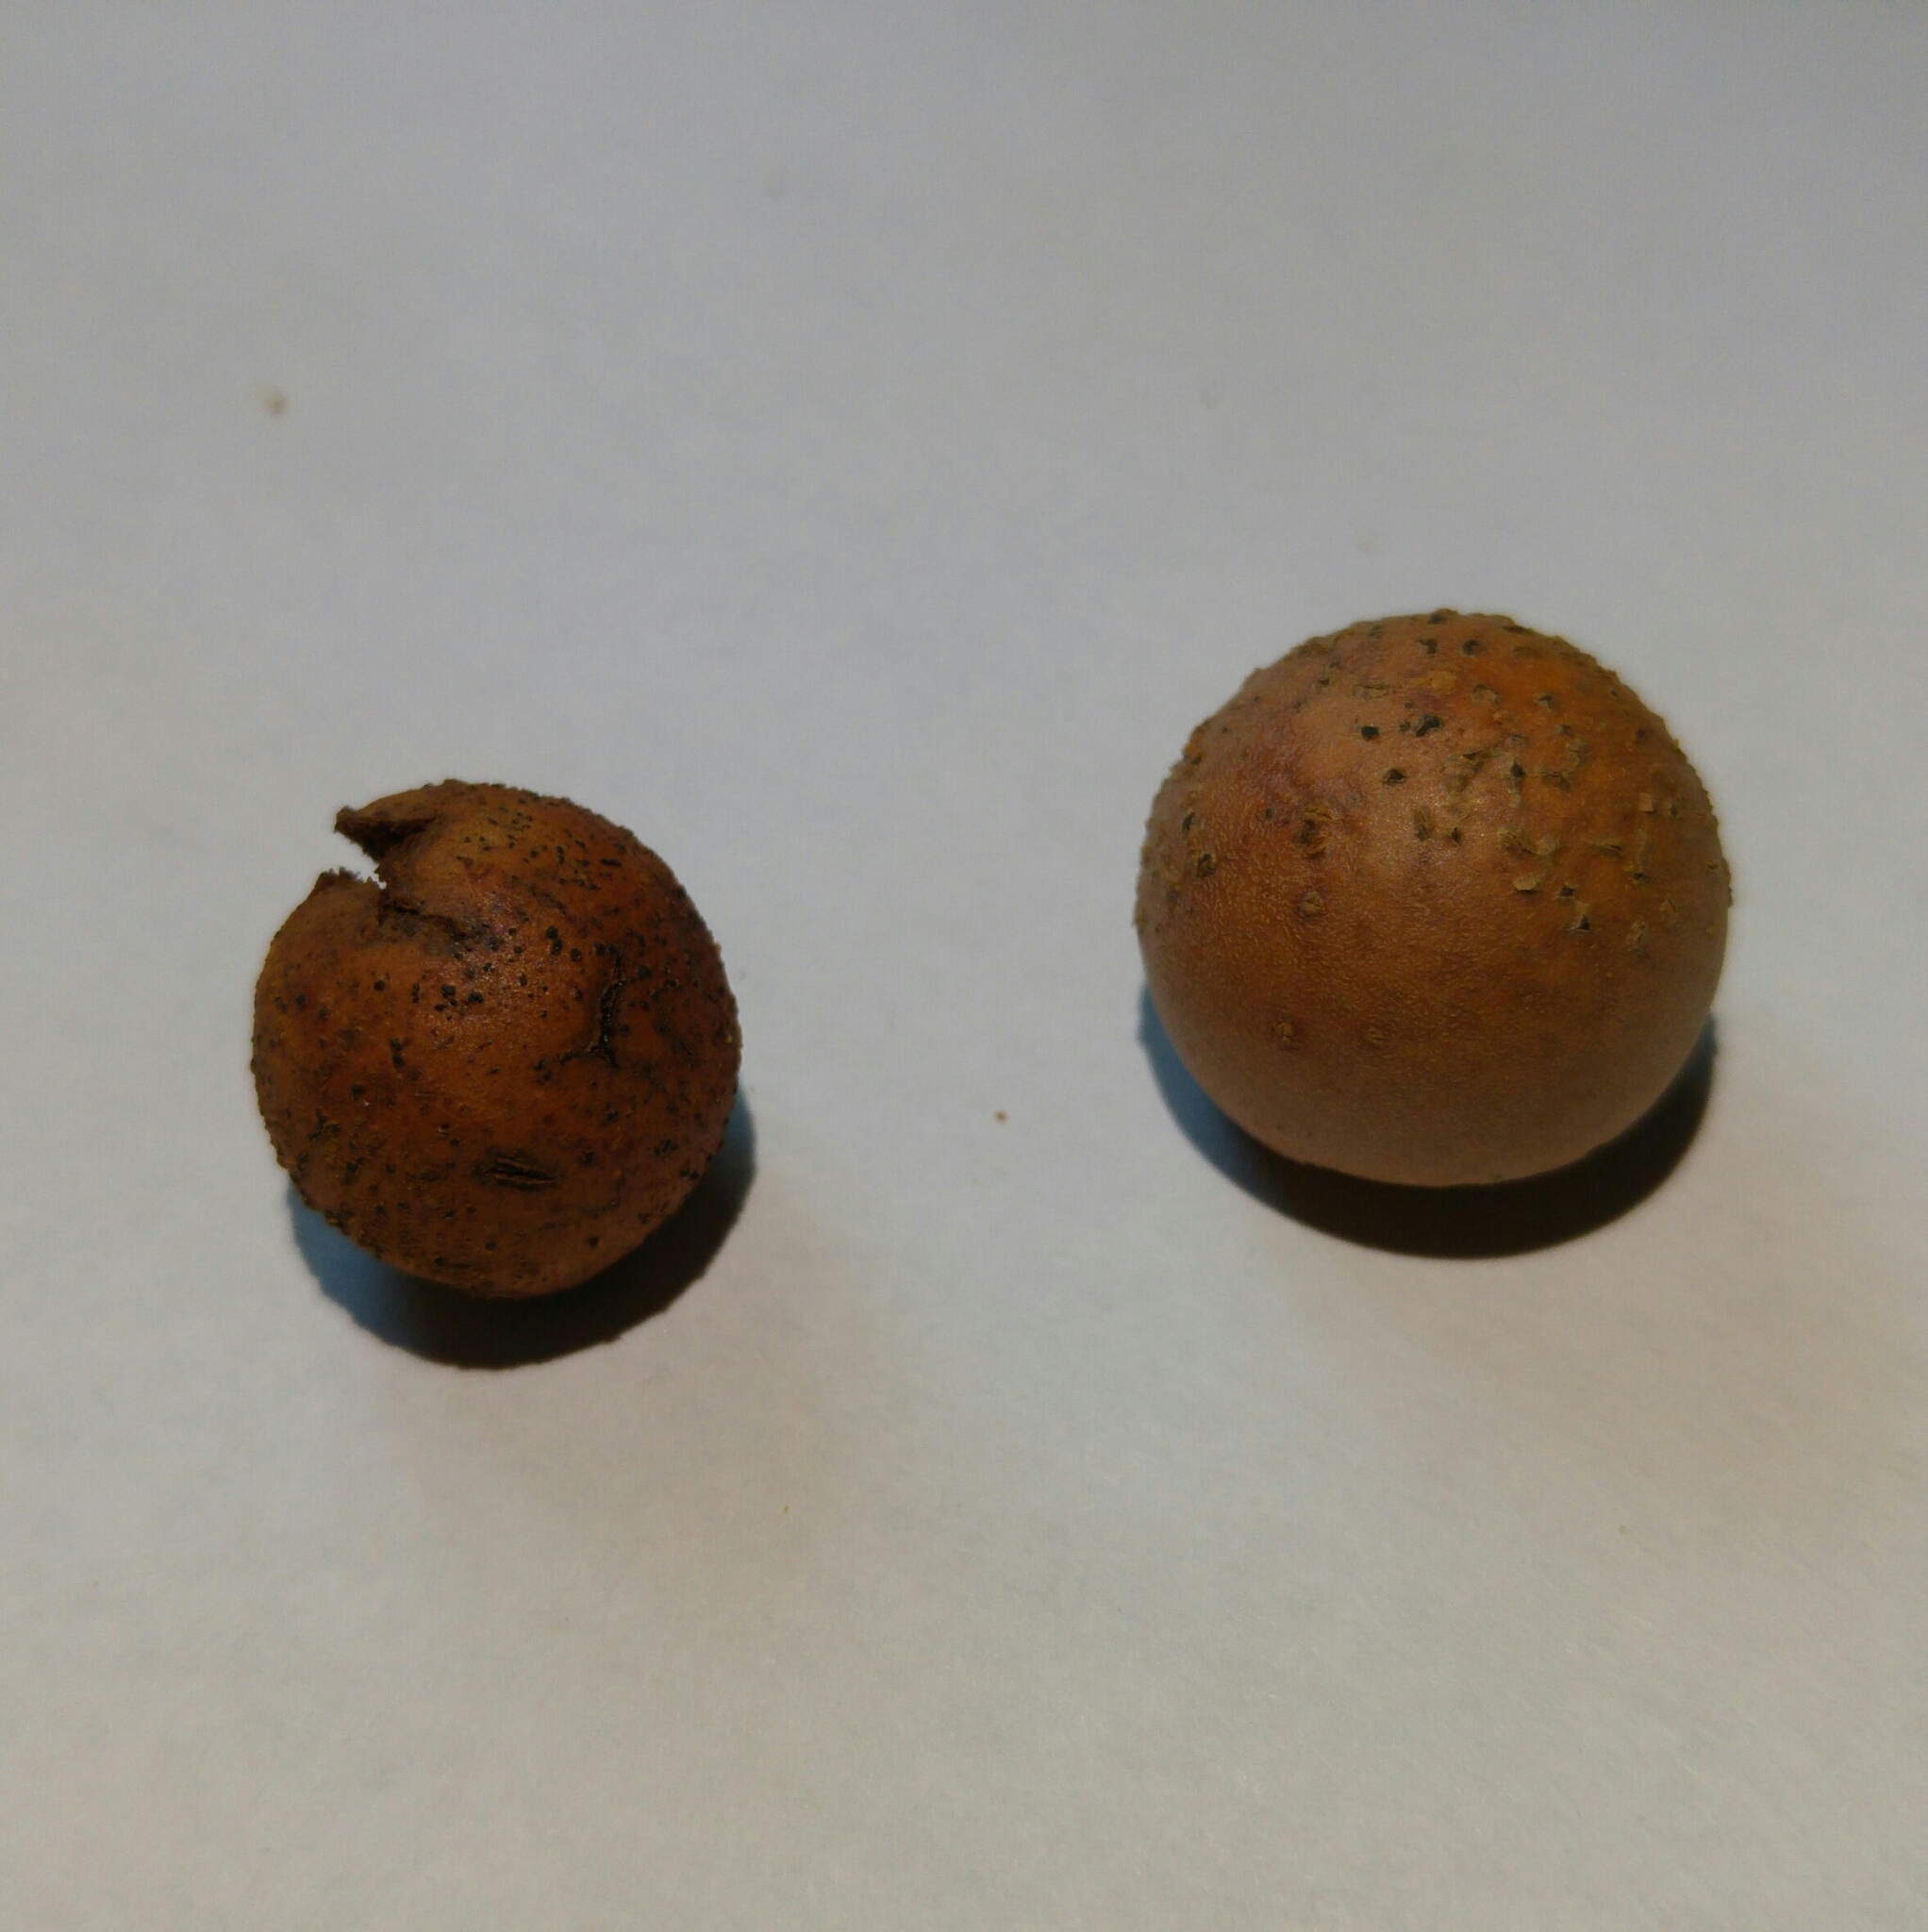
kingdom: Animalia
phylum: Arthropoda
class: Insecta
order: Hymenoptera
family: Cynipidae
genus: Andricus
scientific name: Andricus kollari
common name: Marble gall
